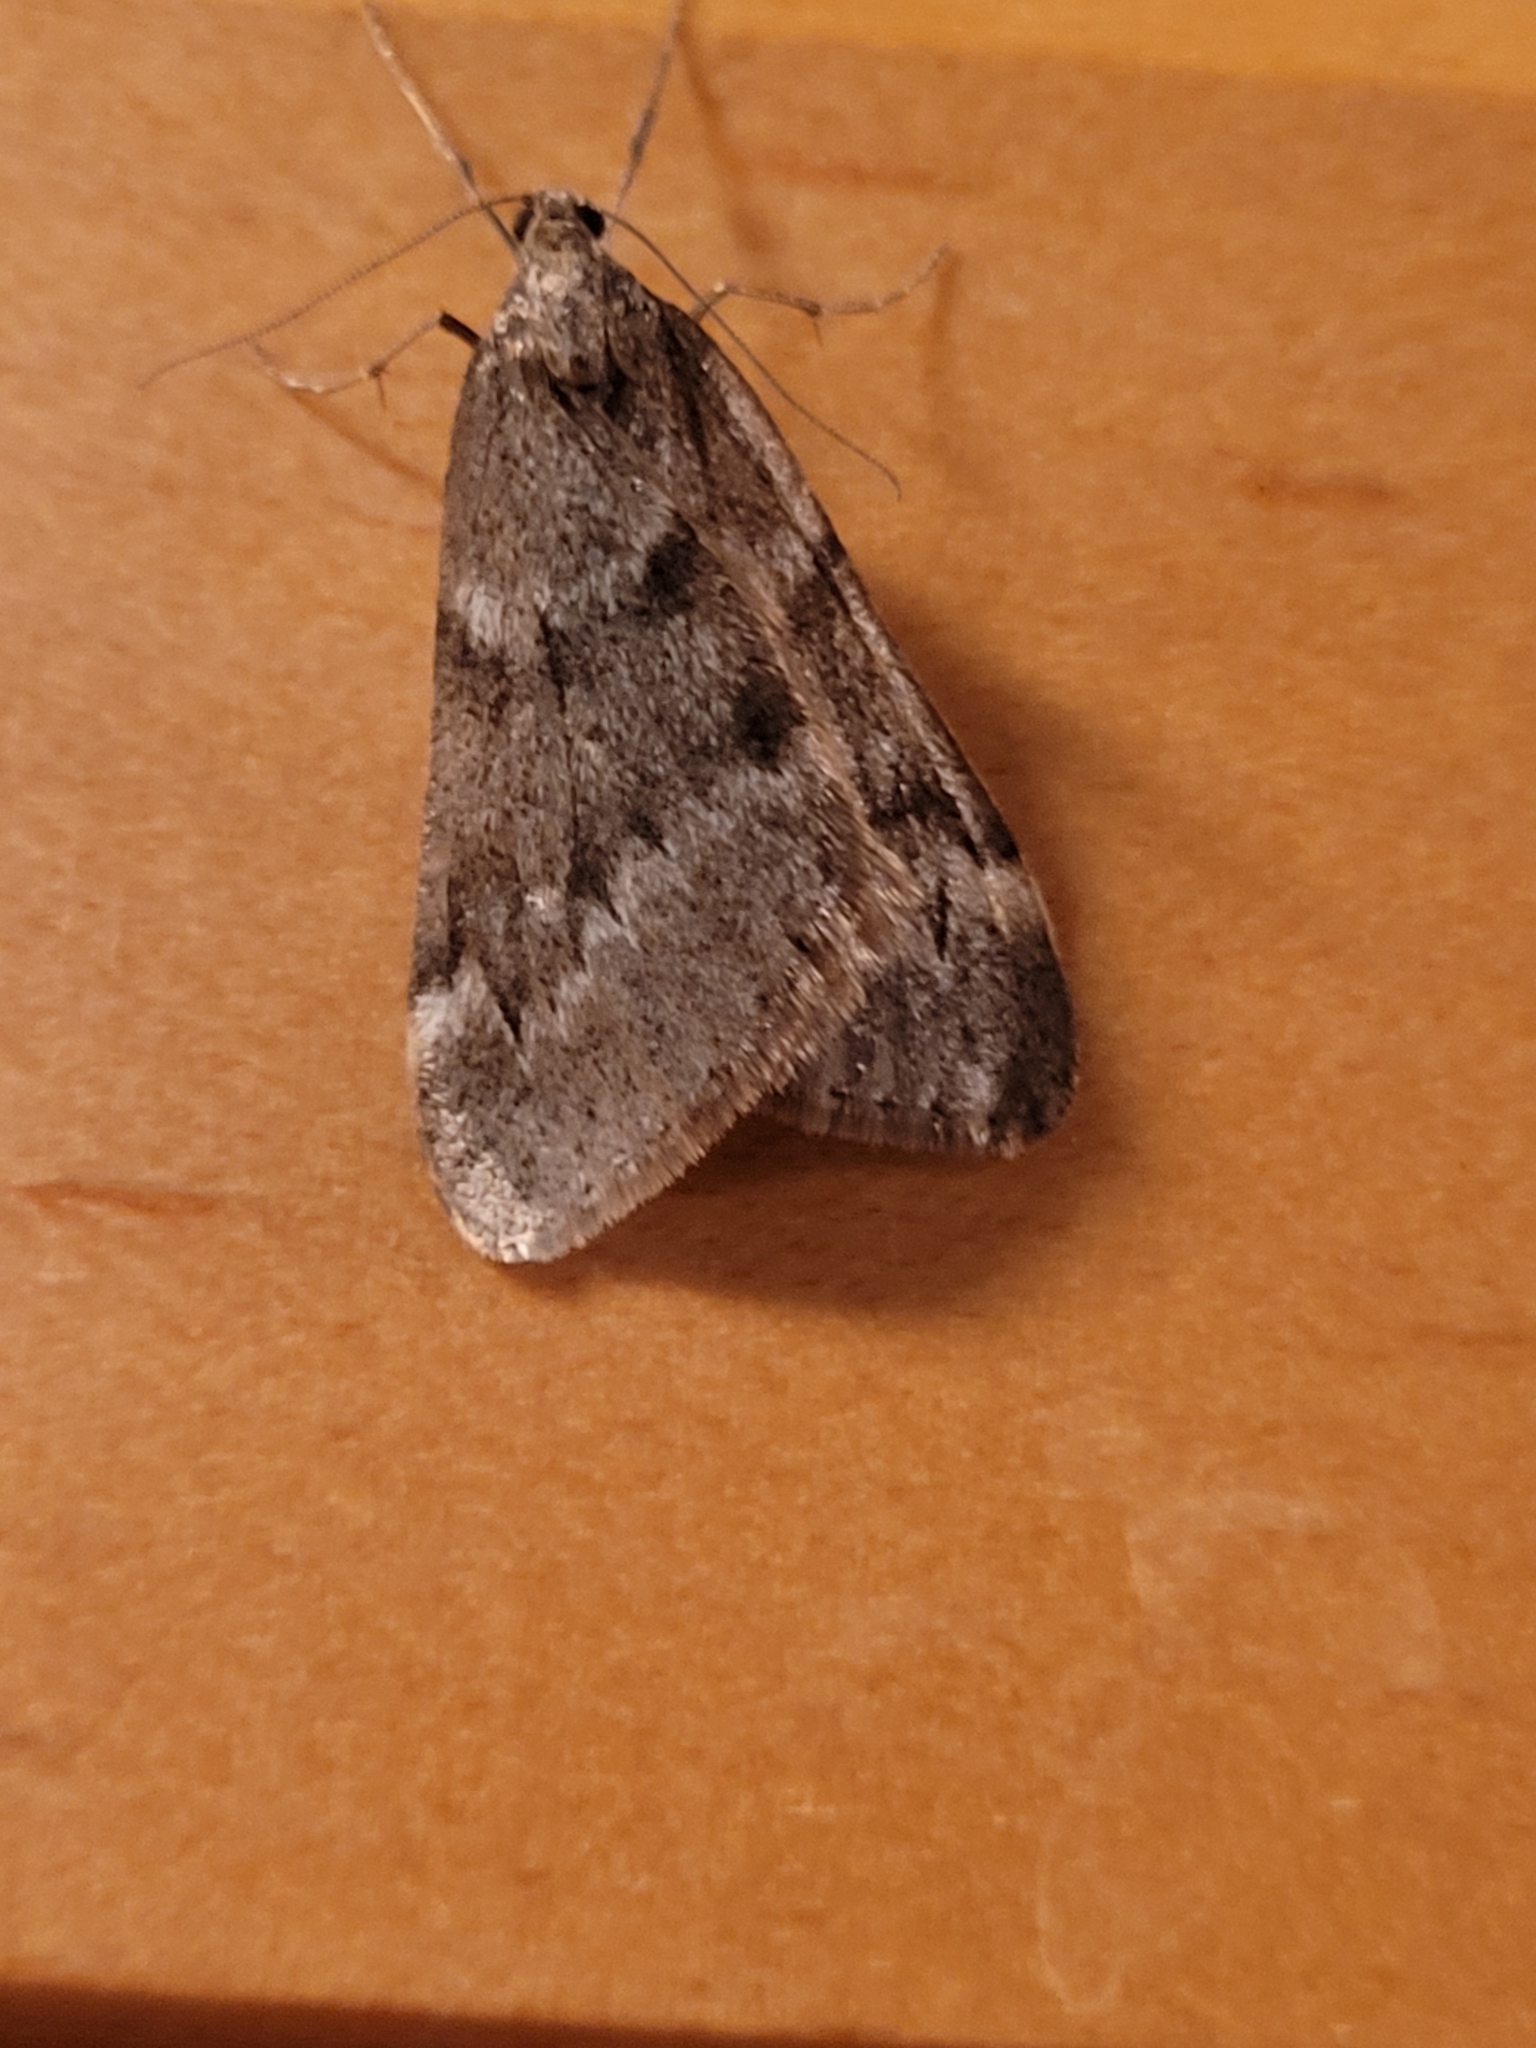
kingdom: Animalia
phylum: Arthropoda
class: Insecta
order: Lepidoptera
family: Geometridae
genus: Alsophila
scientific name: Alsophila pometaria
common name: Fall cankerworm
